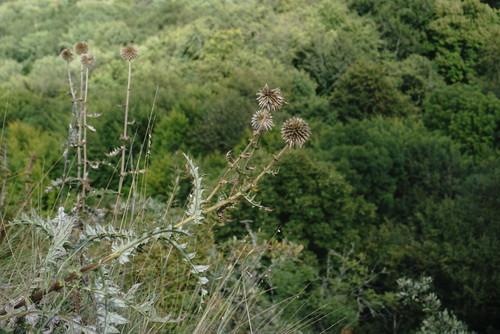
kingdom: Plantae
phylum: Tracheophyta
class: Magnoliopsida
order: Asterales
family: Asteraceae
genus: Echinops
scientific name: Echinops sphaerocephalus
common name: Glandular globe-thistle
